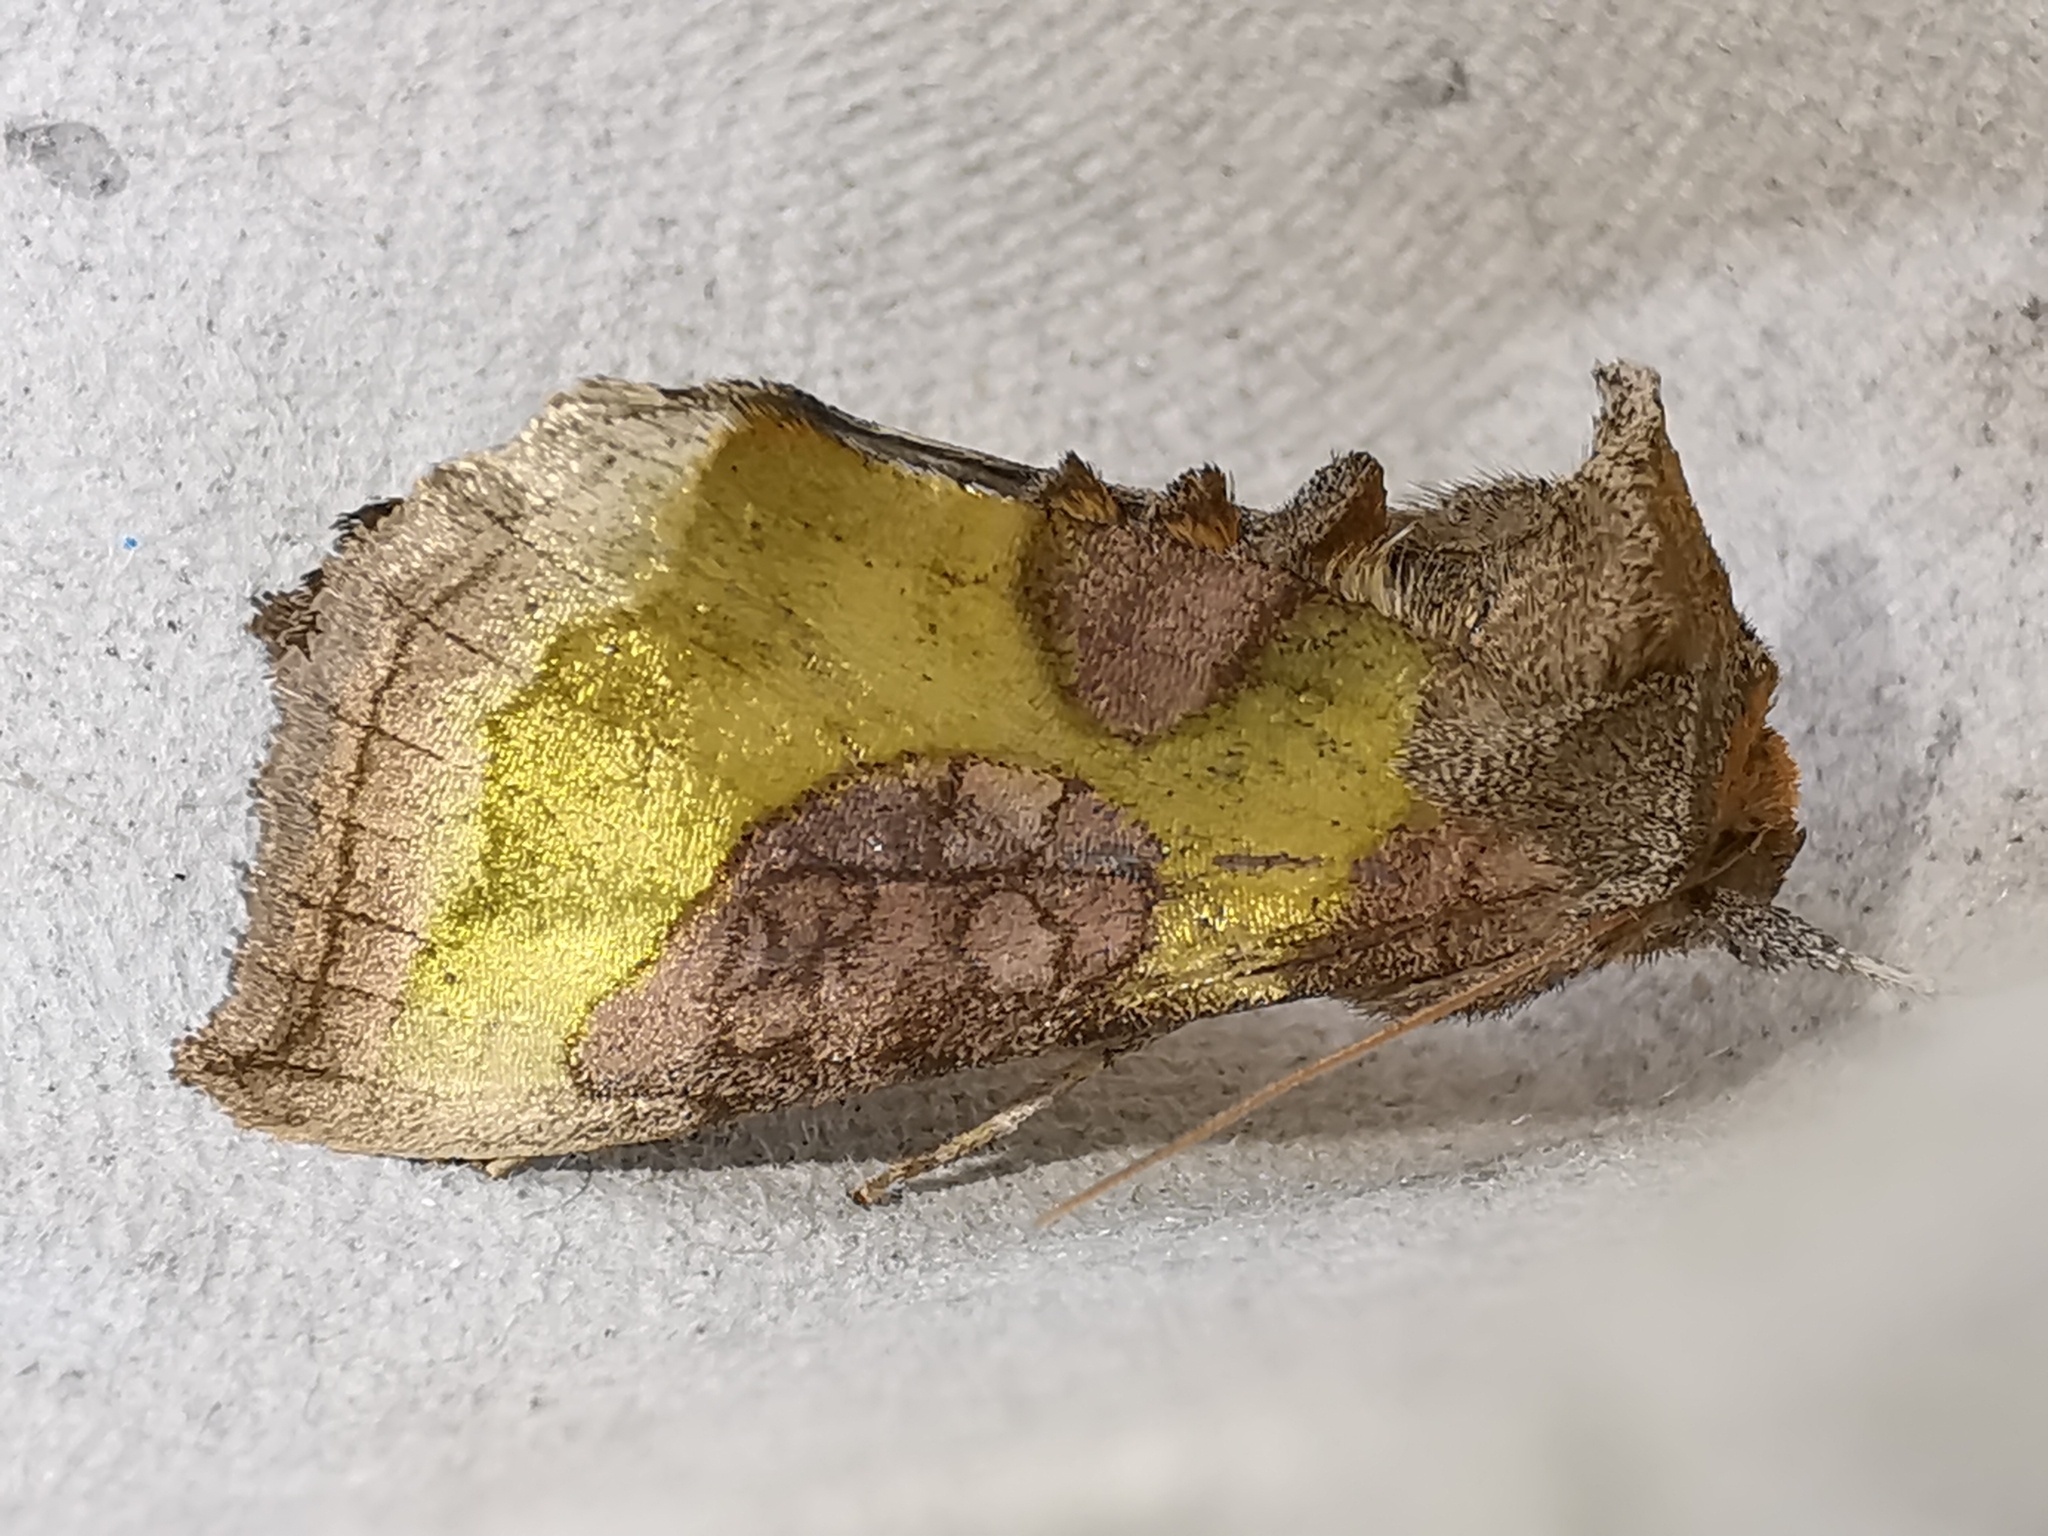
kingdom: Animalia
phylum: Arthropoda
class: Insecta
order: Lepidoptera
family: Noctuidae
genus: Diachrysia
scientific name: Diachrysia chrysitis
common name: Burnished brass
